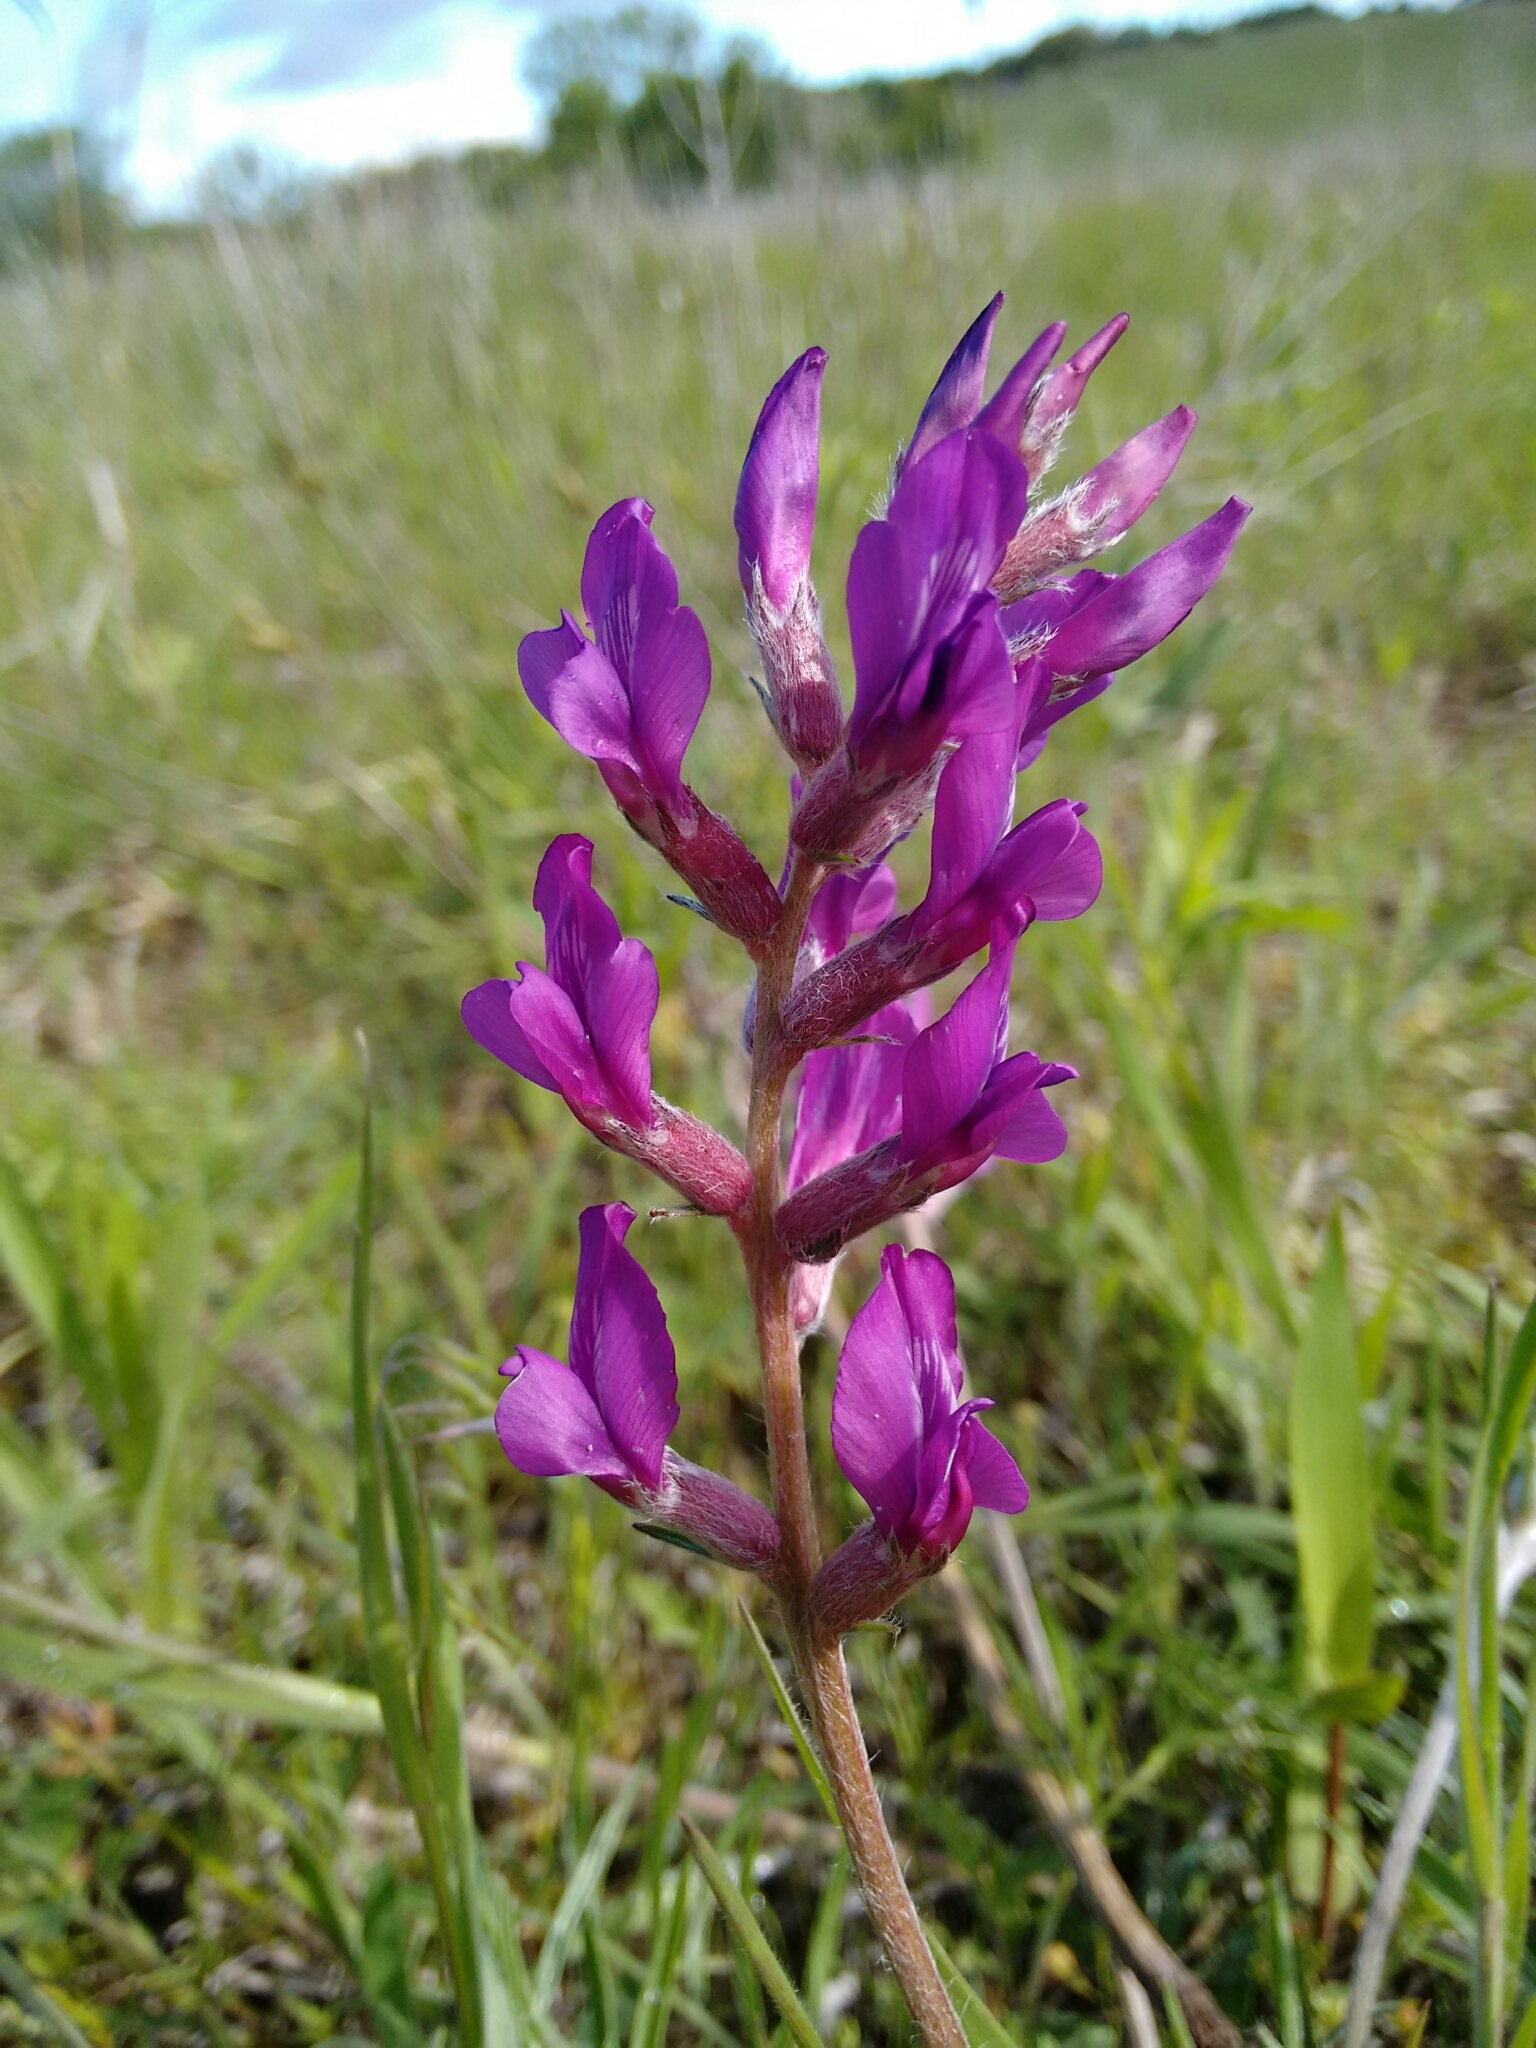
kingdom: Plantae
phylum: Tracheophyta
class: Magnoliopsida
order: Fabales
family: Fabaceae
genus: Oxytropis
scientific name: Oxytropis lambertii
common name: Purple locoweed
